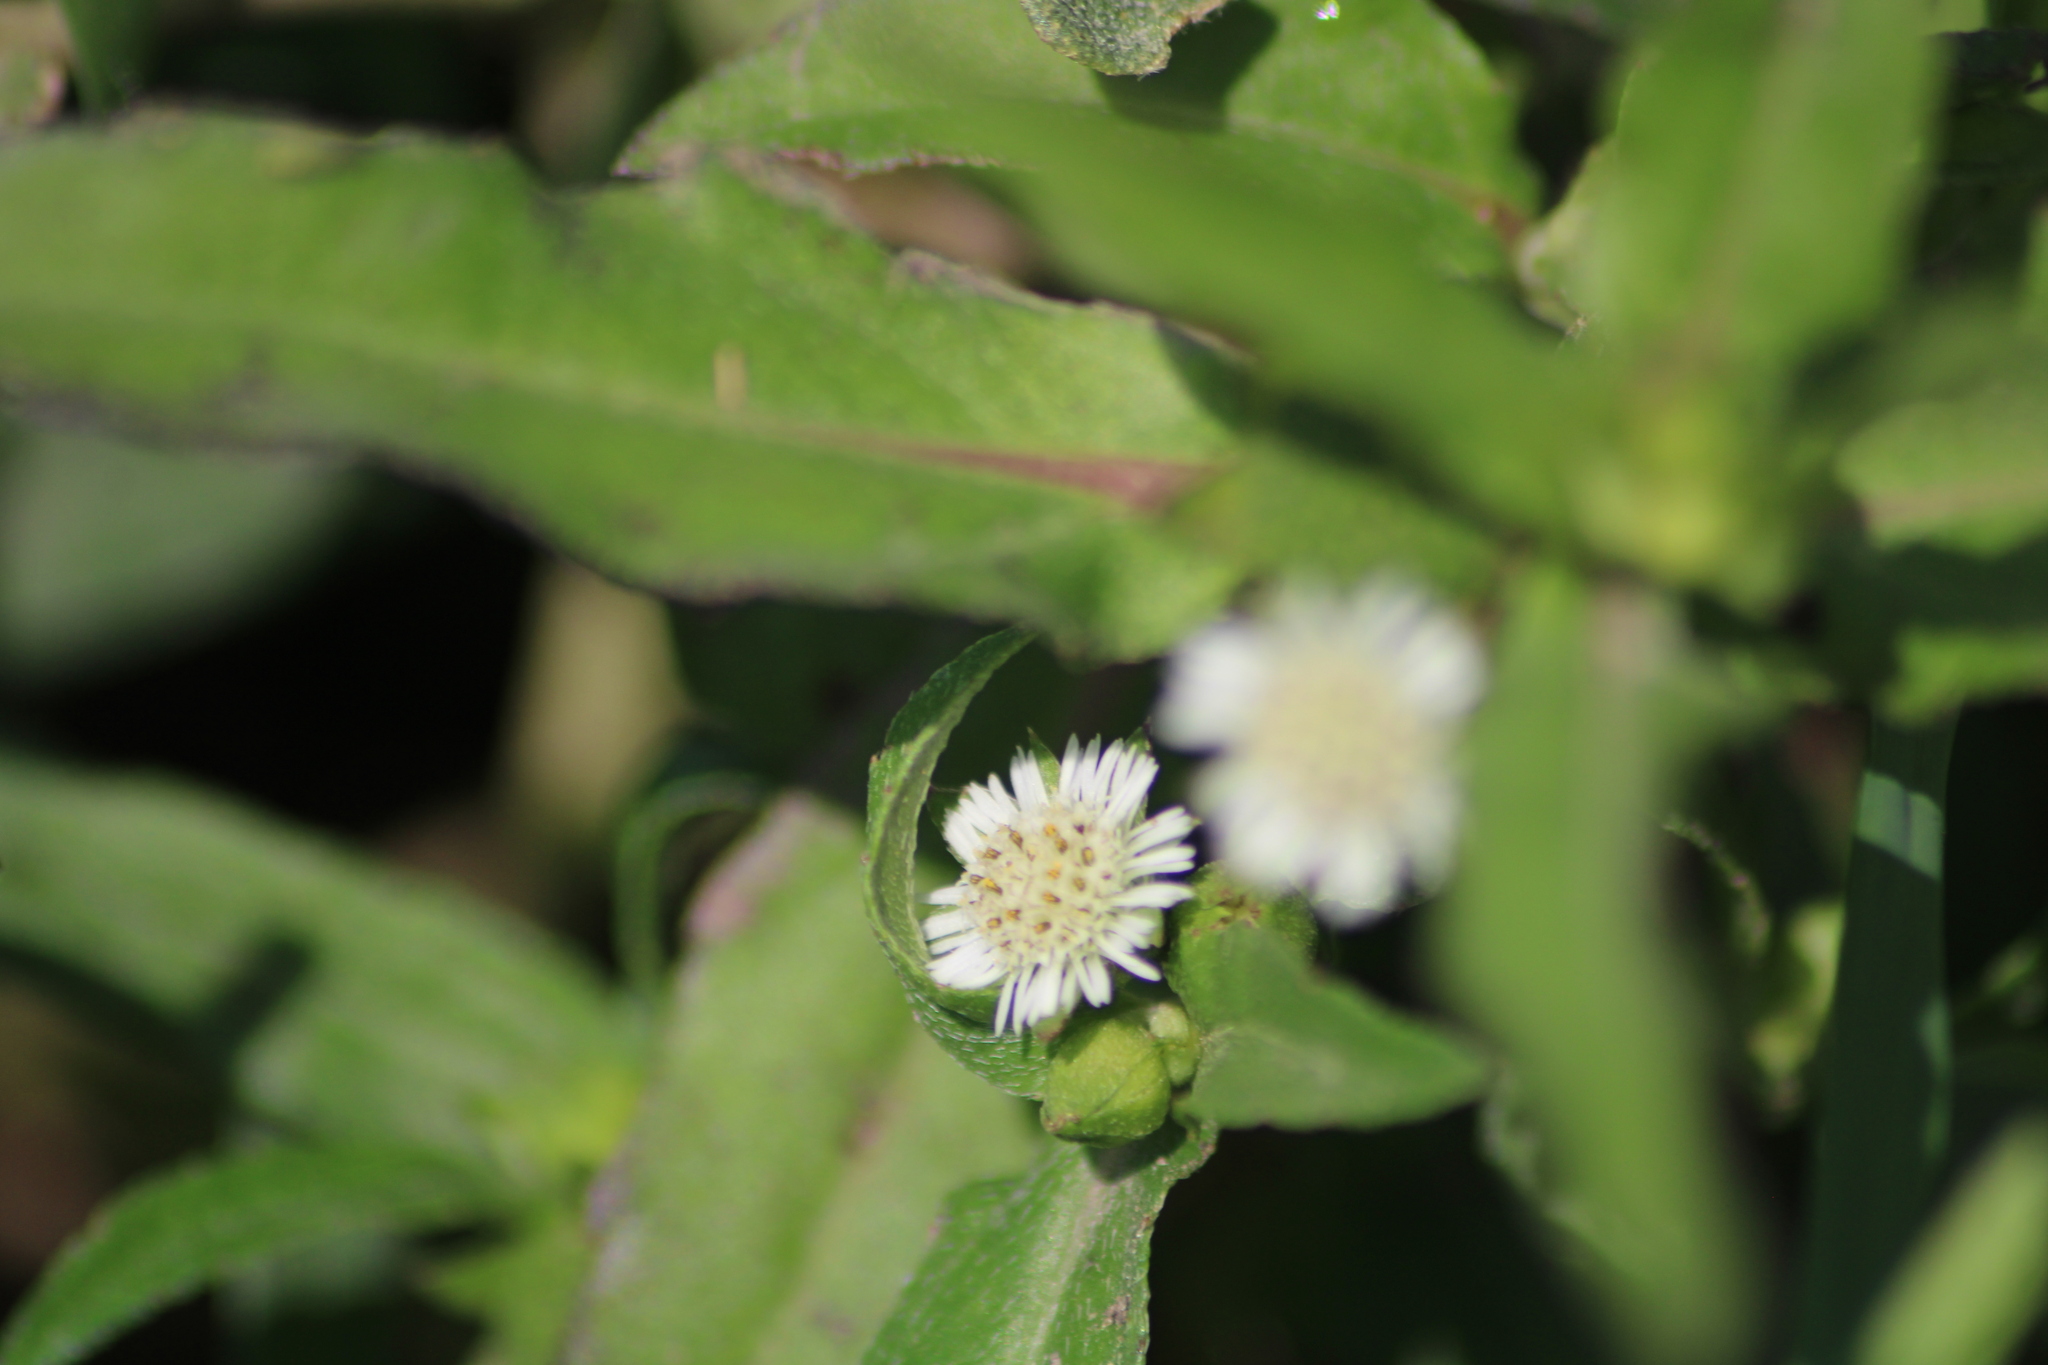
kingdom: Plantae
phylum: Tracheophyta
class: Magnoliopsida
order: Asterales
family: Asteraceae
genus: Eclipta
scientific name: Eclipta prostrata
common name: False daisy
